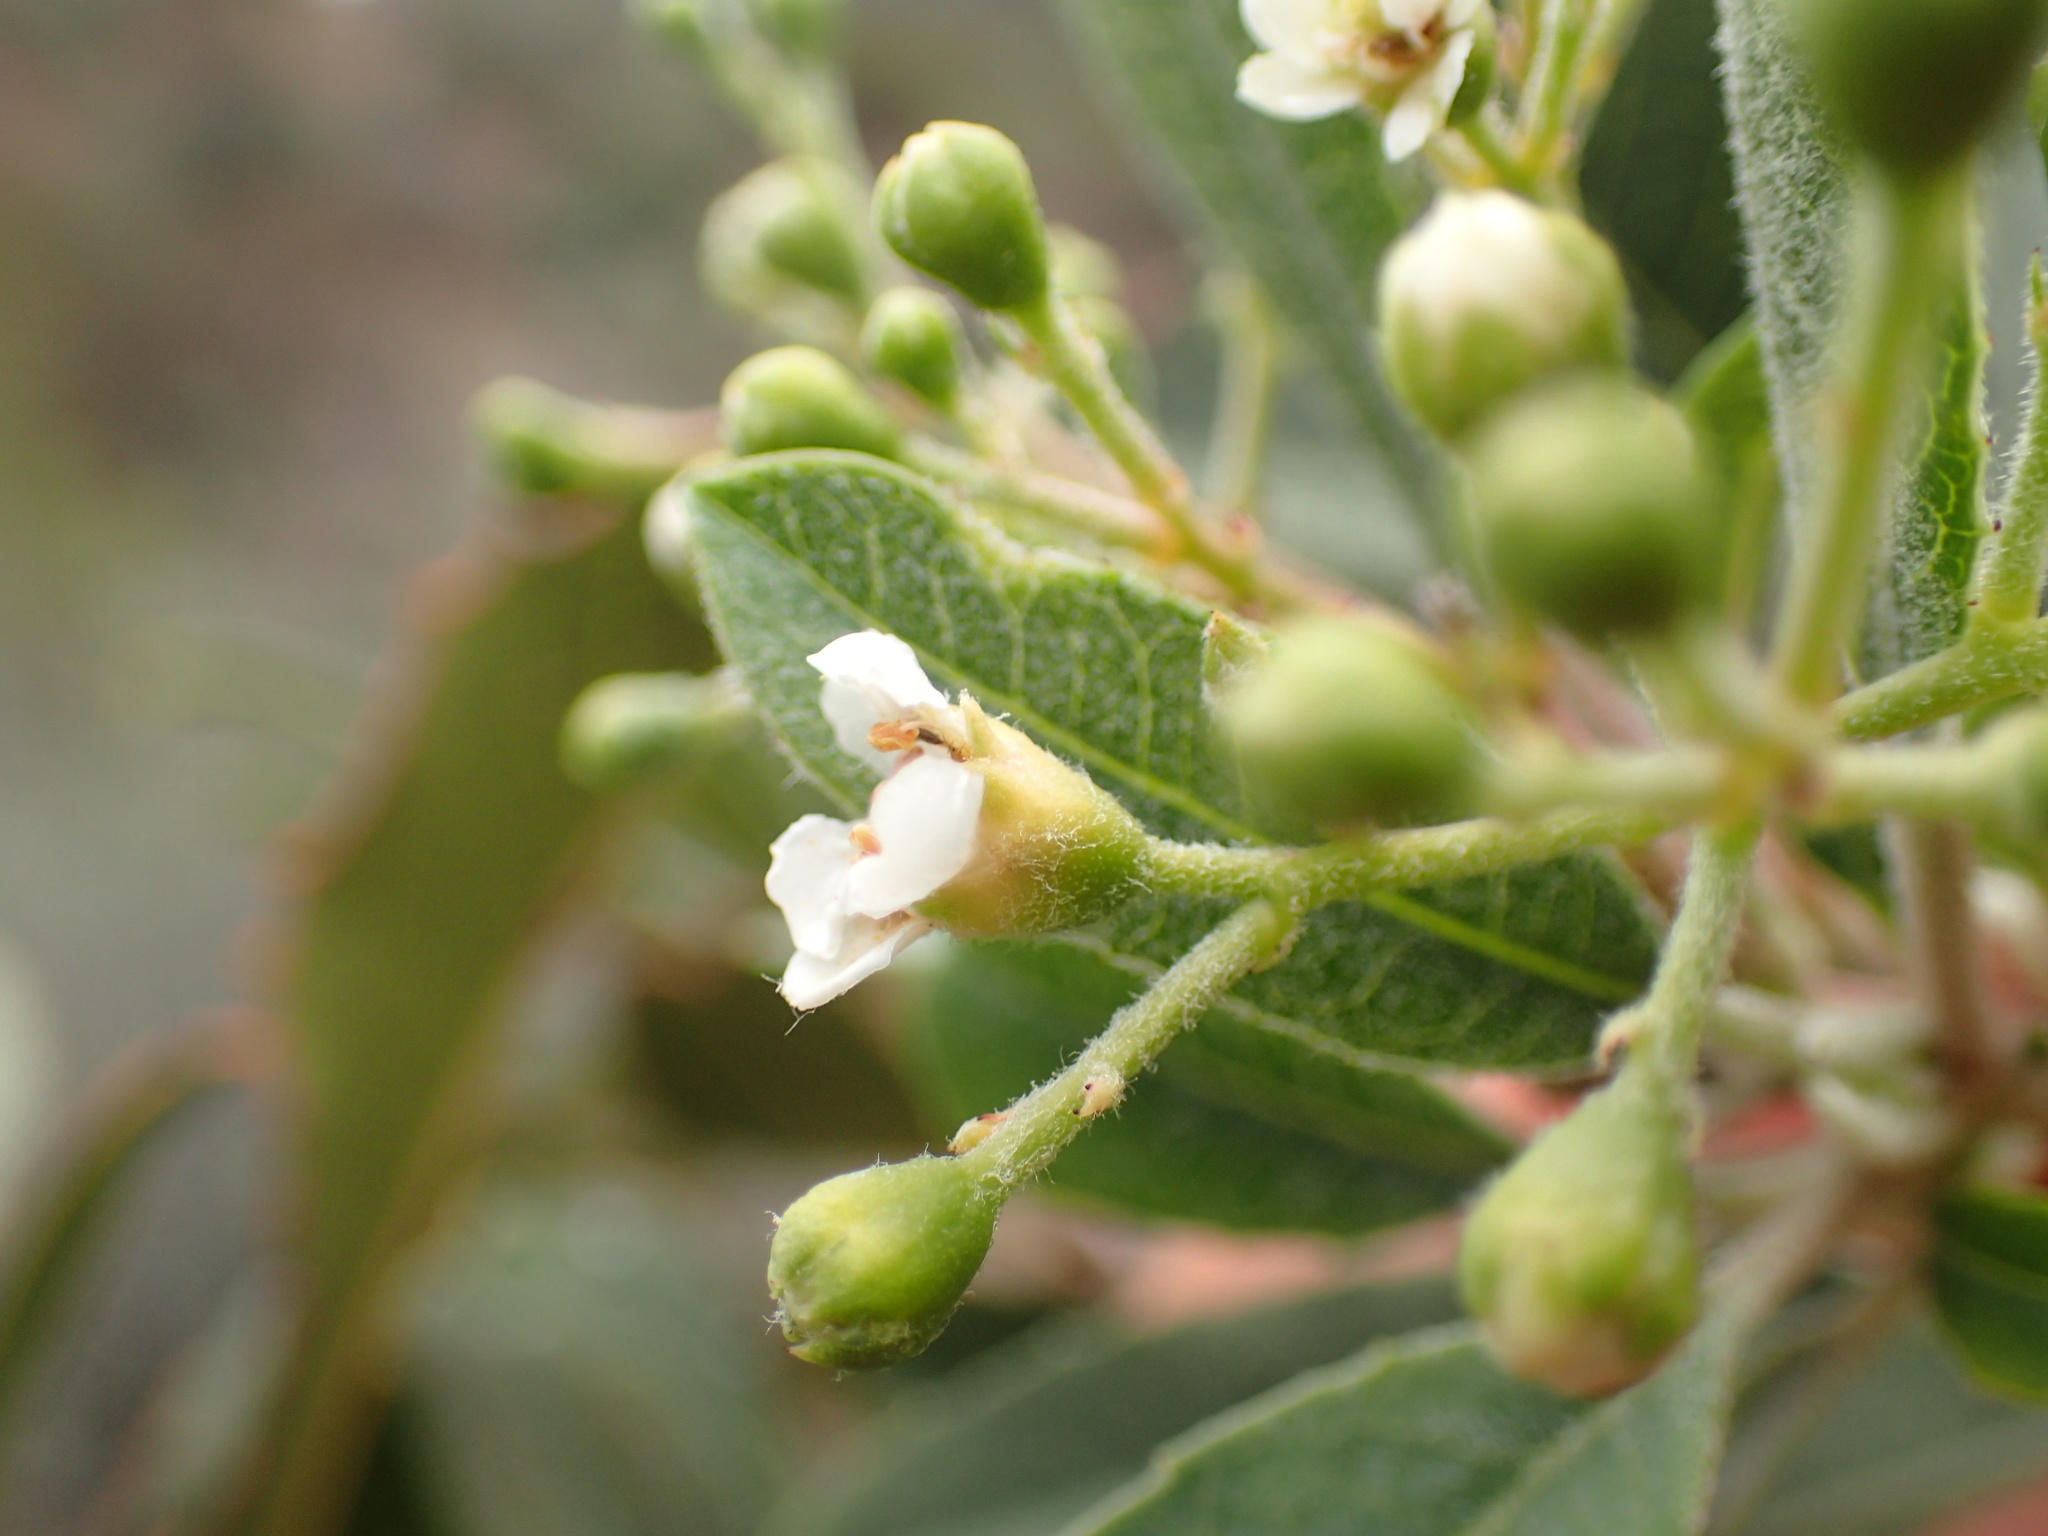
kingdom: Plantae
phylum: Tracheophyta
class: Magnoliopsida
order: Rosales
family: Rosaceae
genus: Heteromeles
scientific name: Heteromeles arbutifolia
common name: California-holly
